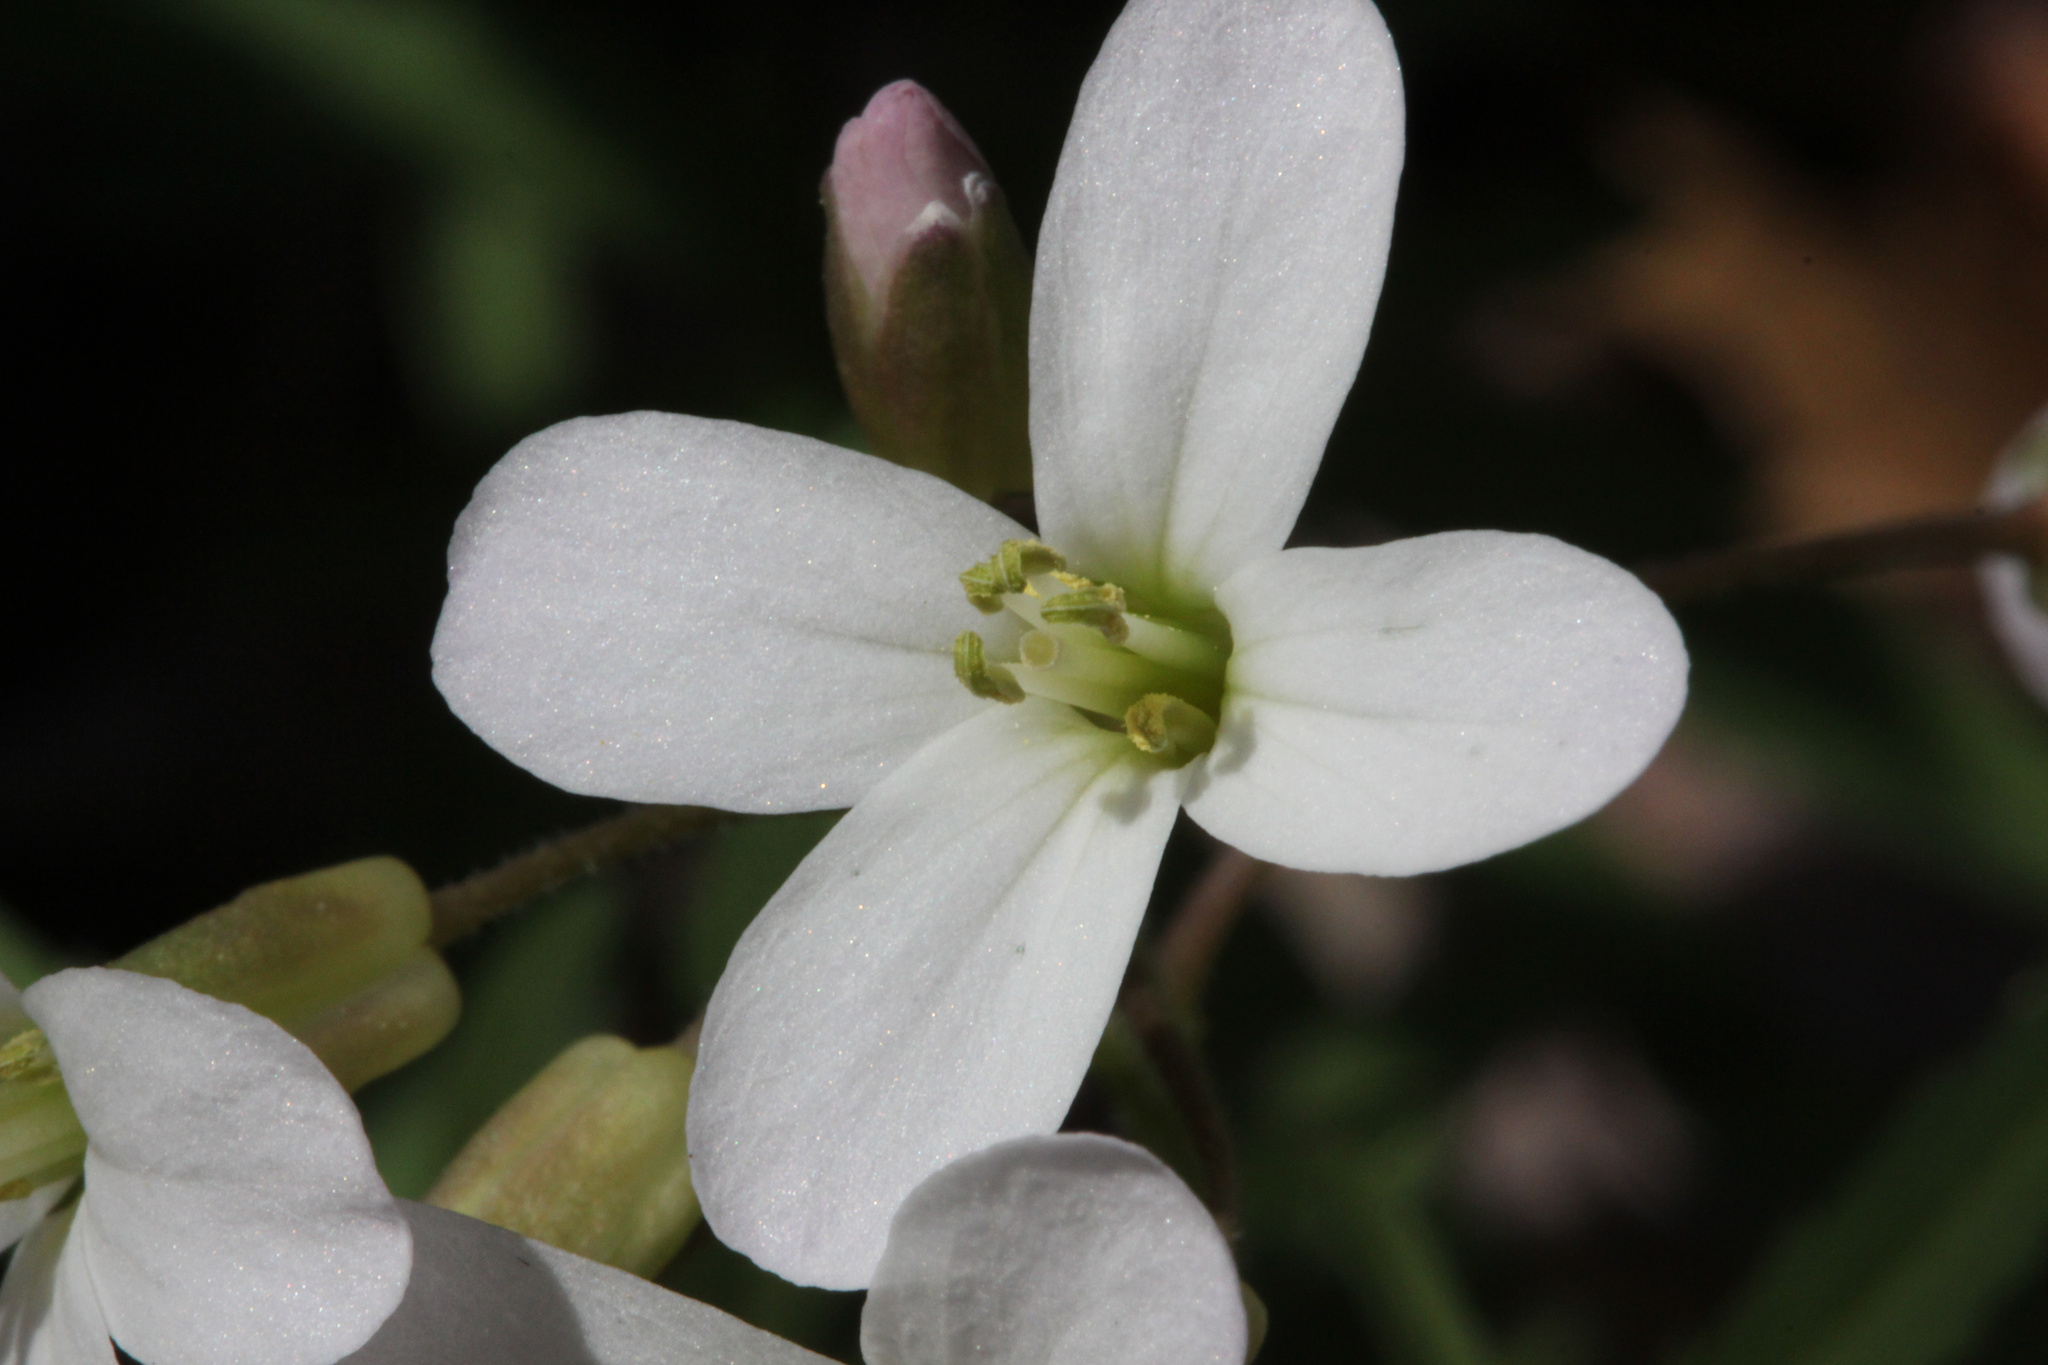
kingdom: Plantae
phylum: Tracheophyta
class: Magnoliopsida
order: Brassicales
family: Brassicaceae
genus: Cardamine
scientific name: Cardamine concatenata
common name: Cut-leaf toothcup
